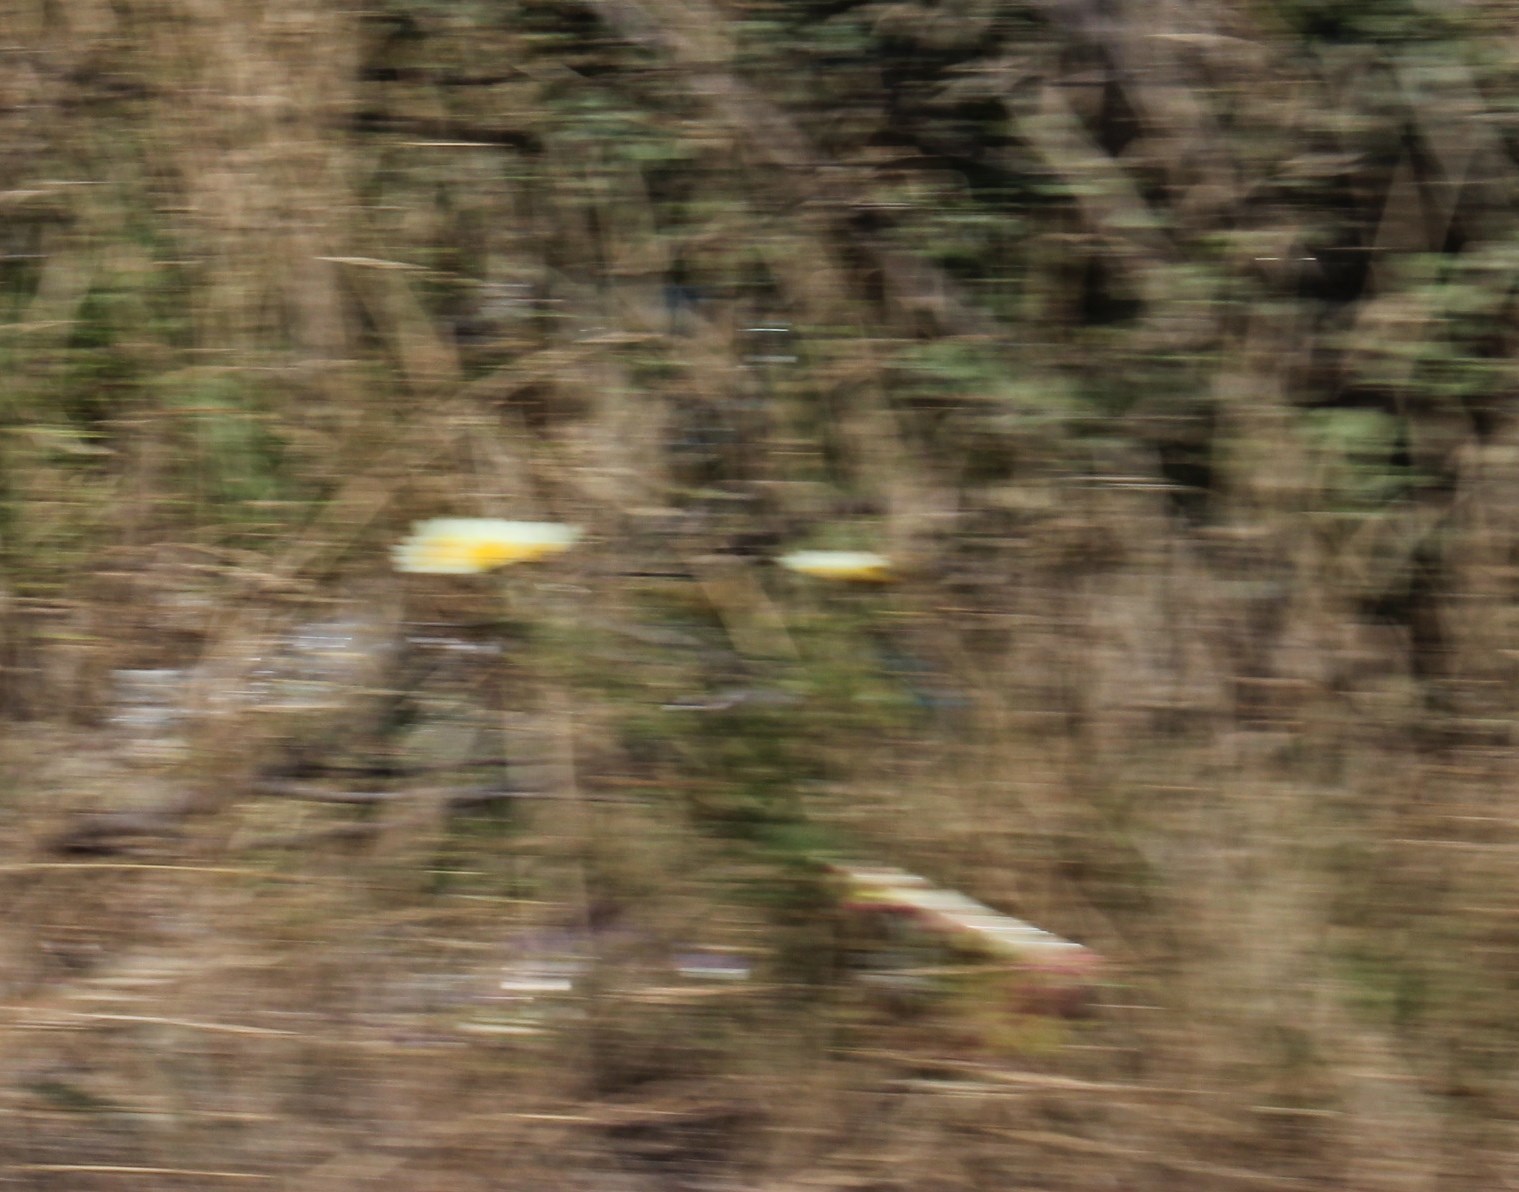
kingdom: Plantae
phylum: Tracheophyta
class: Magnoliopsida
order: Asterales
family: Asteraceae
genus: Glebionis
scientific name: Glebionis coronaria
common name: Crowndaisy
